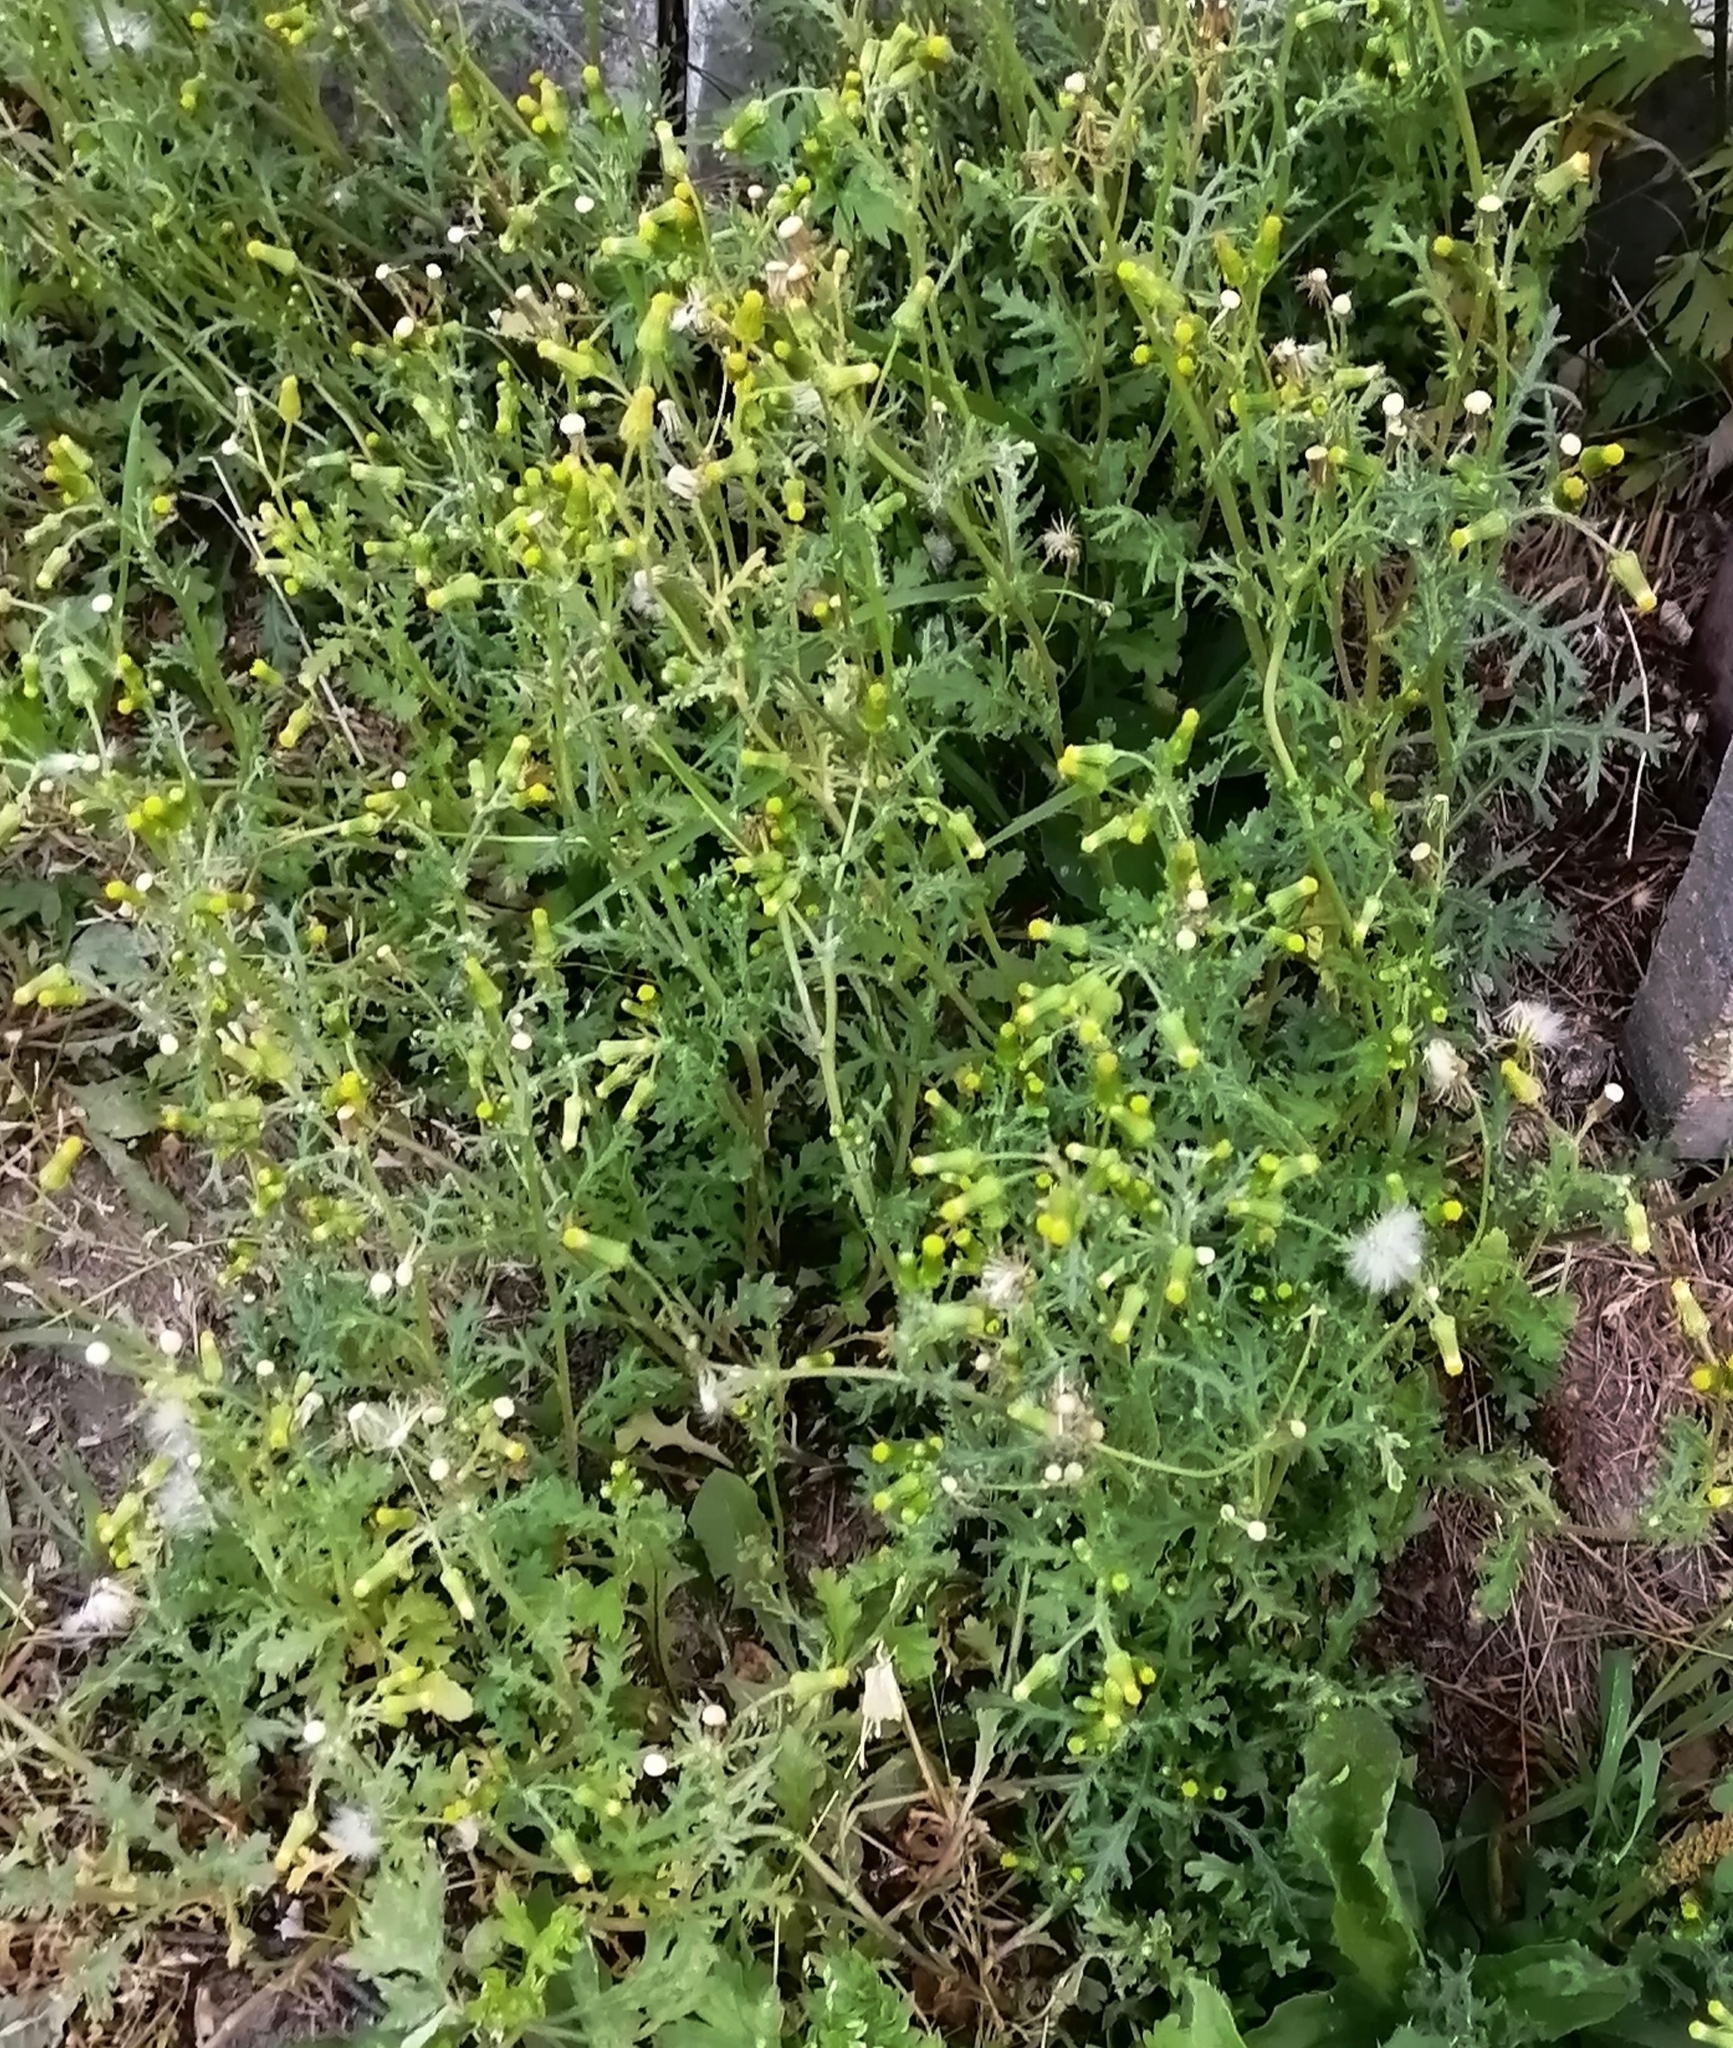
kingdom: Plantae
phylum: Tracheophyta
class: Magnoliopsida
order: Asterales
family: Asteraceae
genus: Senecio
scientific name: Senecio vulgaris
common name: Old-man-in-the-spring
